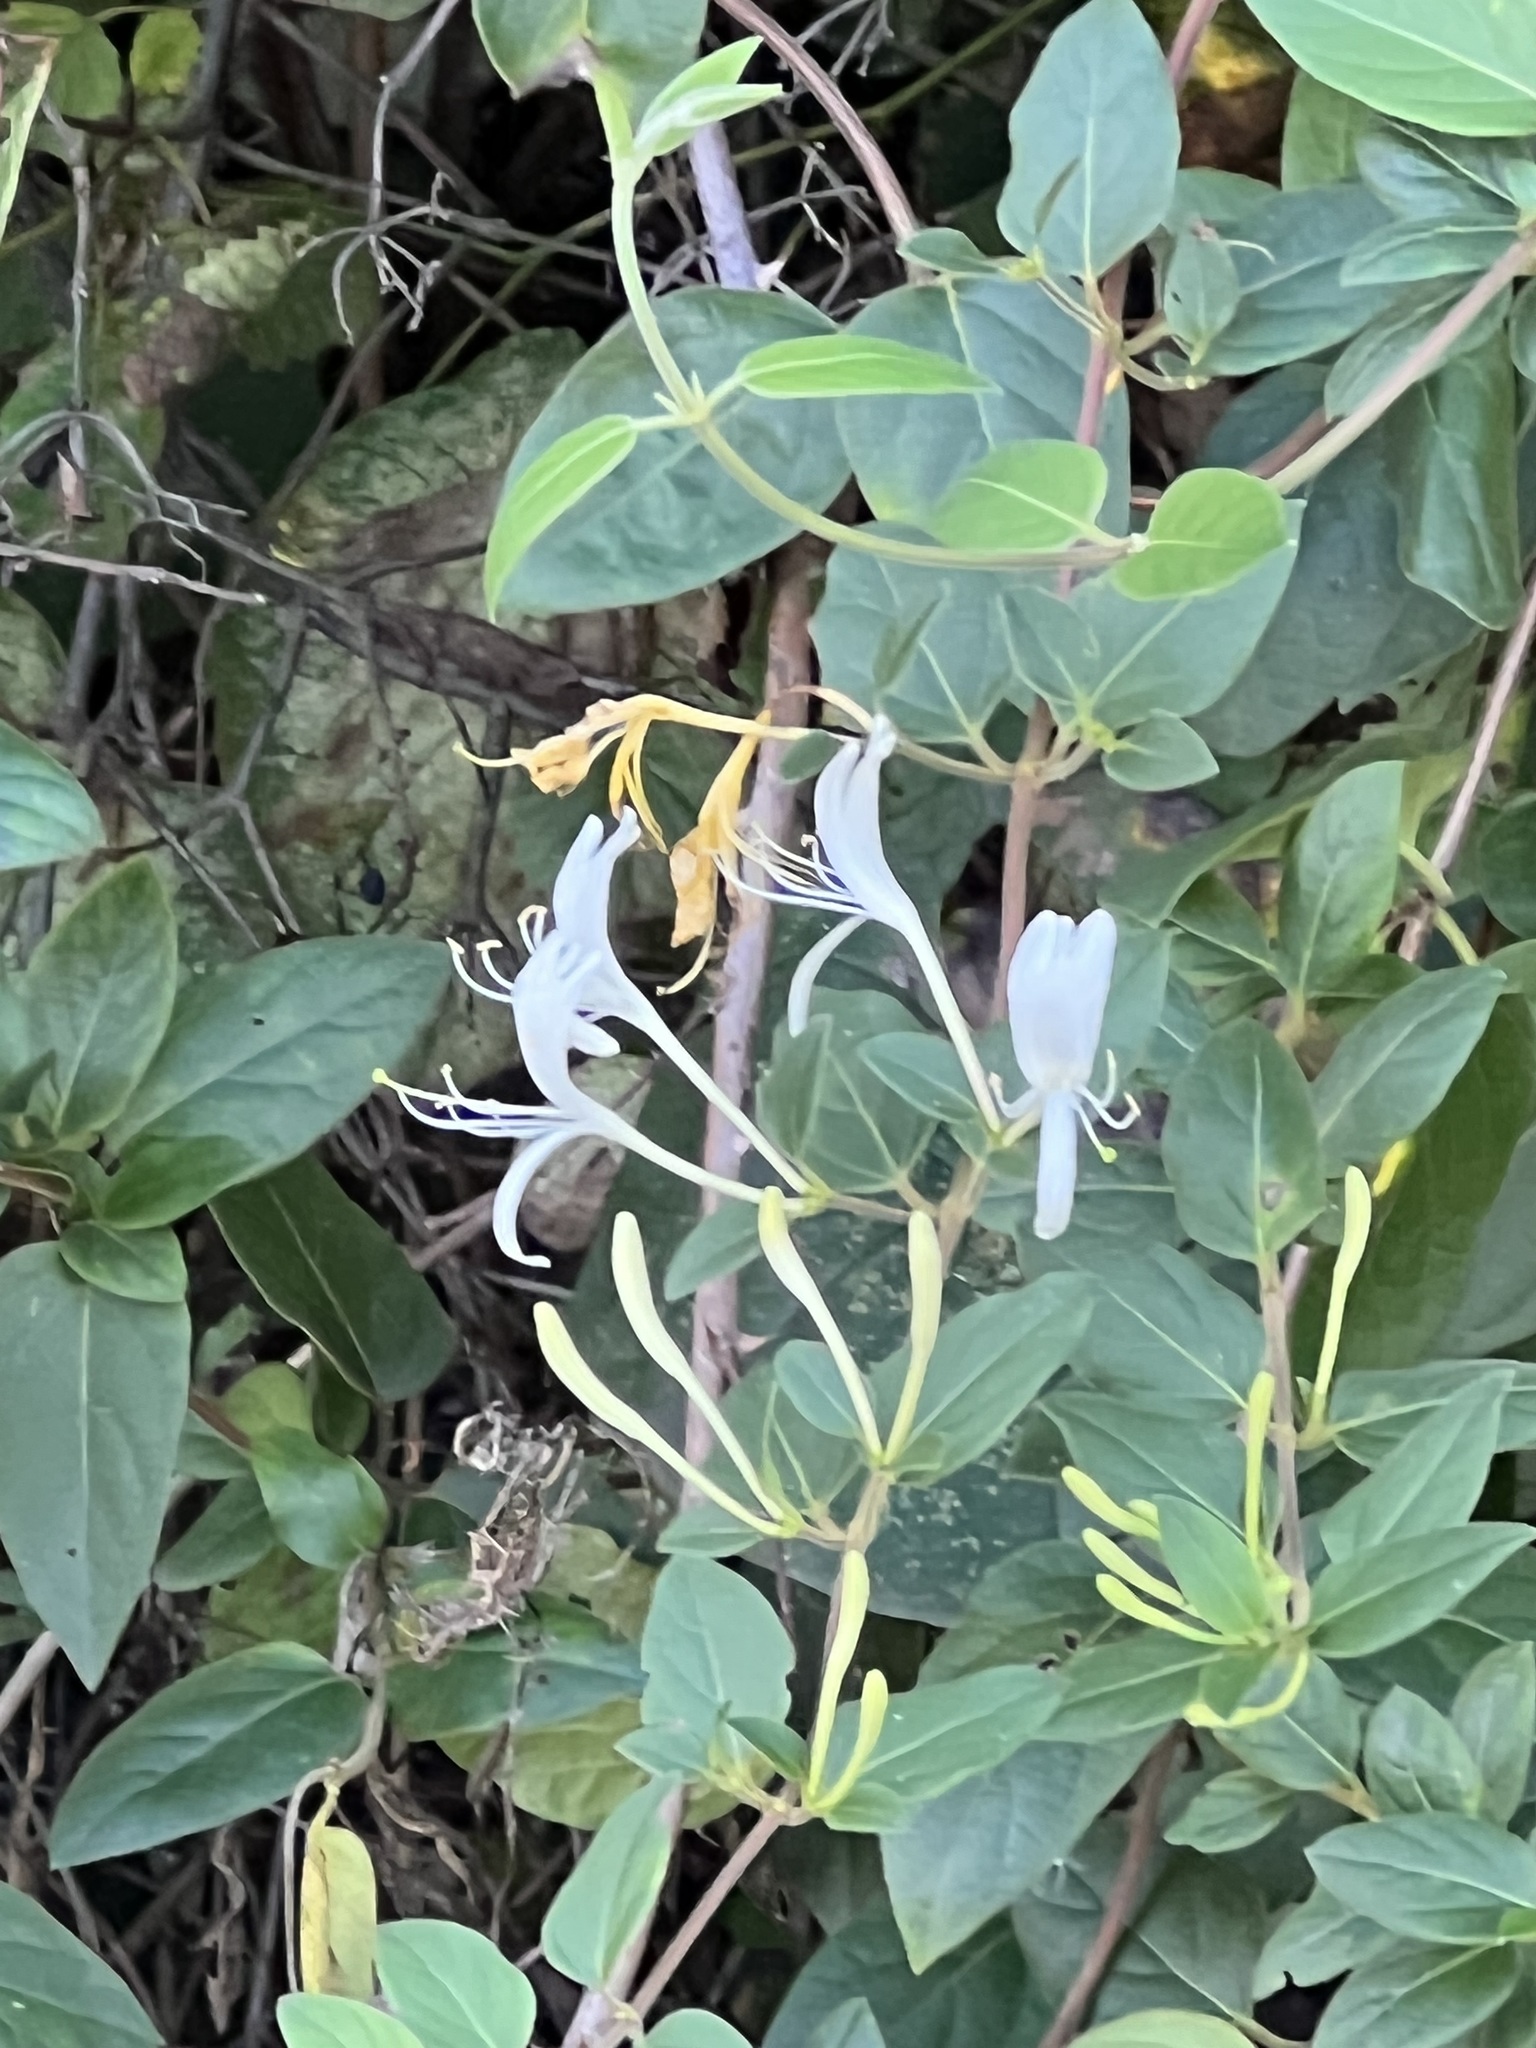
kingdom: Plantae
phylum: Tracheophyta
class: Magnoliopsida
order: Dipsacales
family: Caprifoliaceae
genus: Lonicera
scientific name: Lonicera japonica
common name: Japanese honeysuckle
